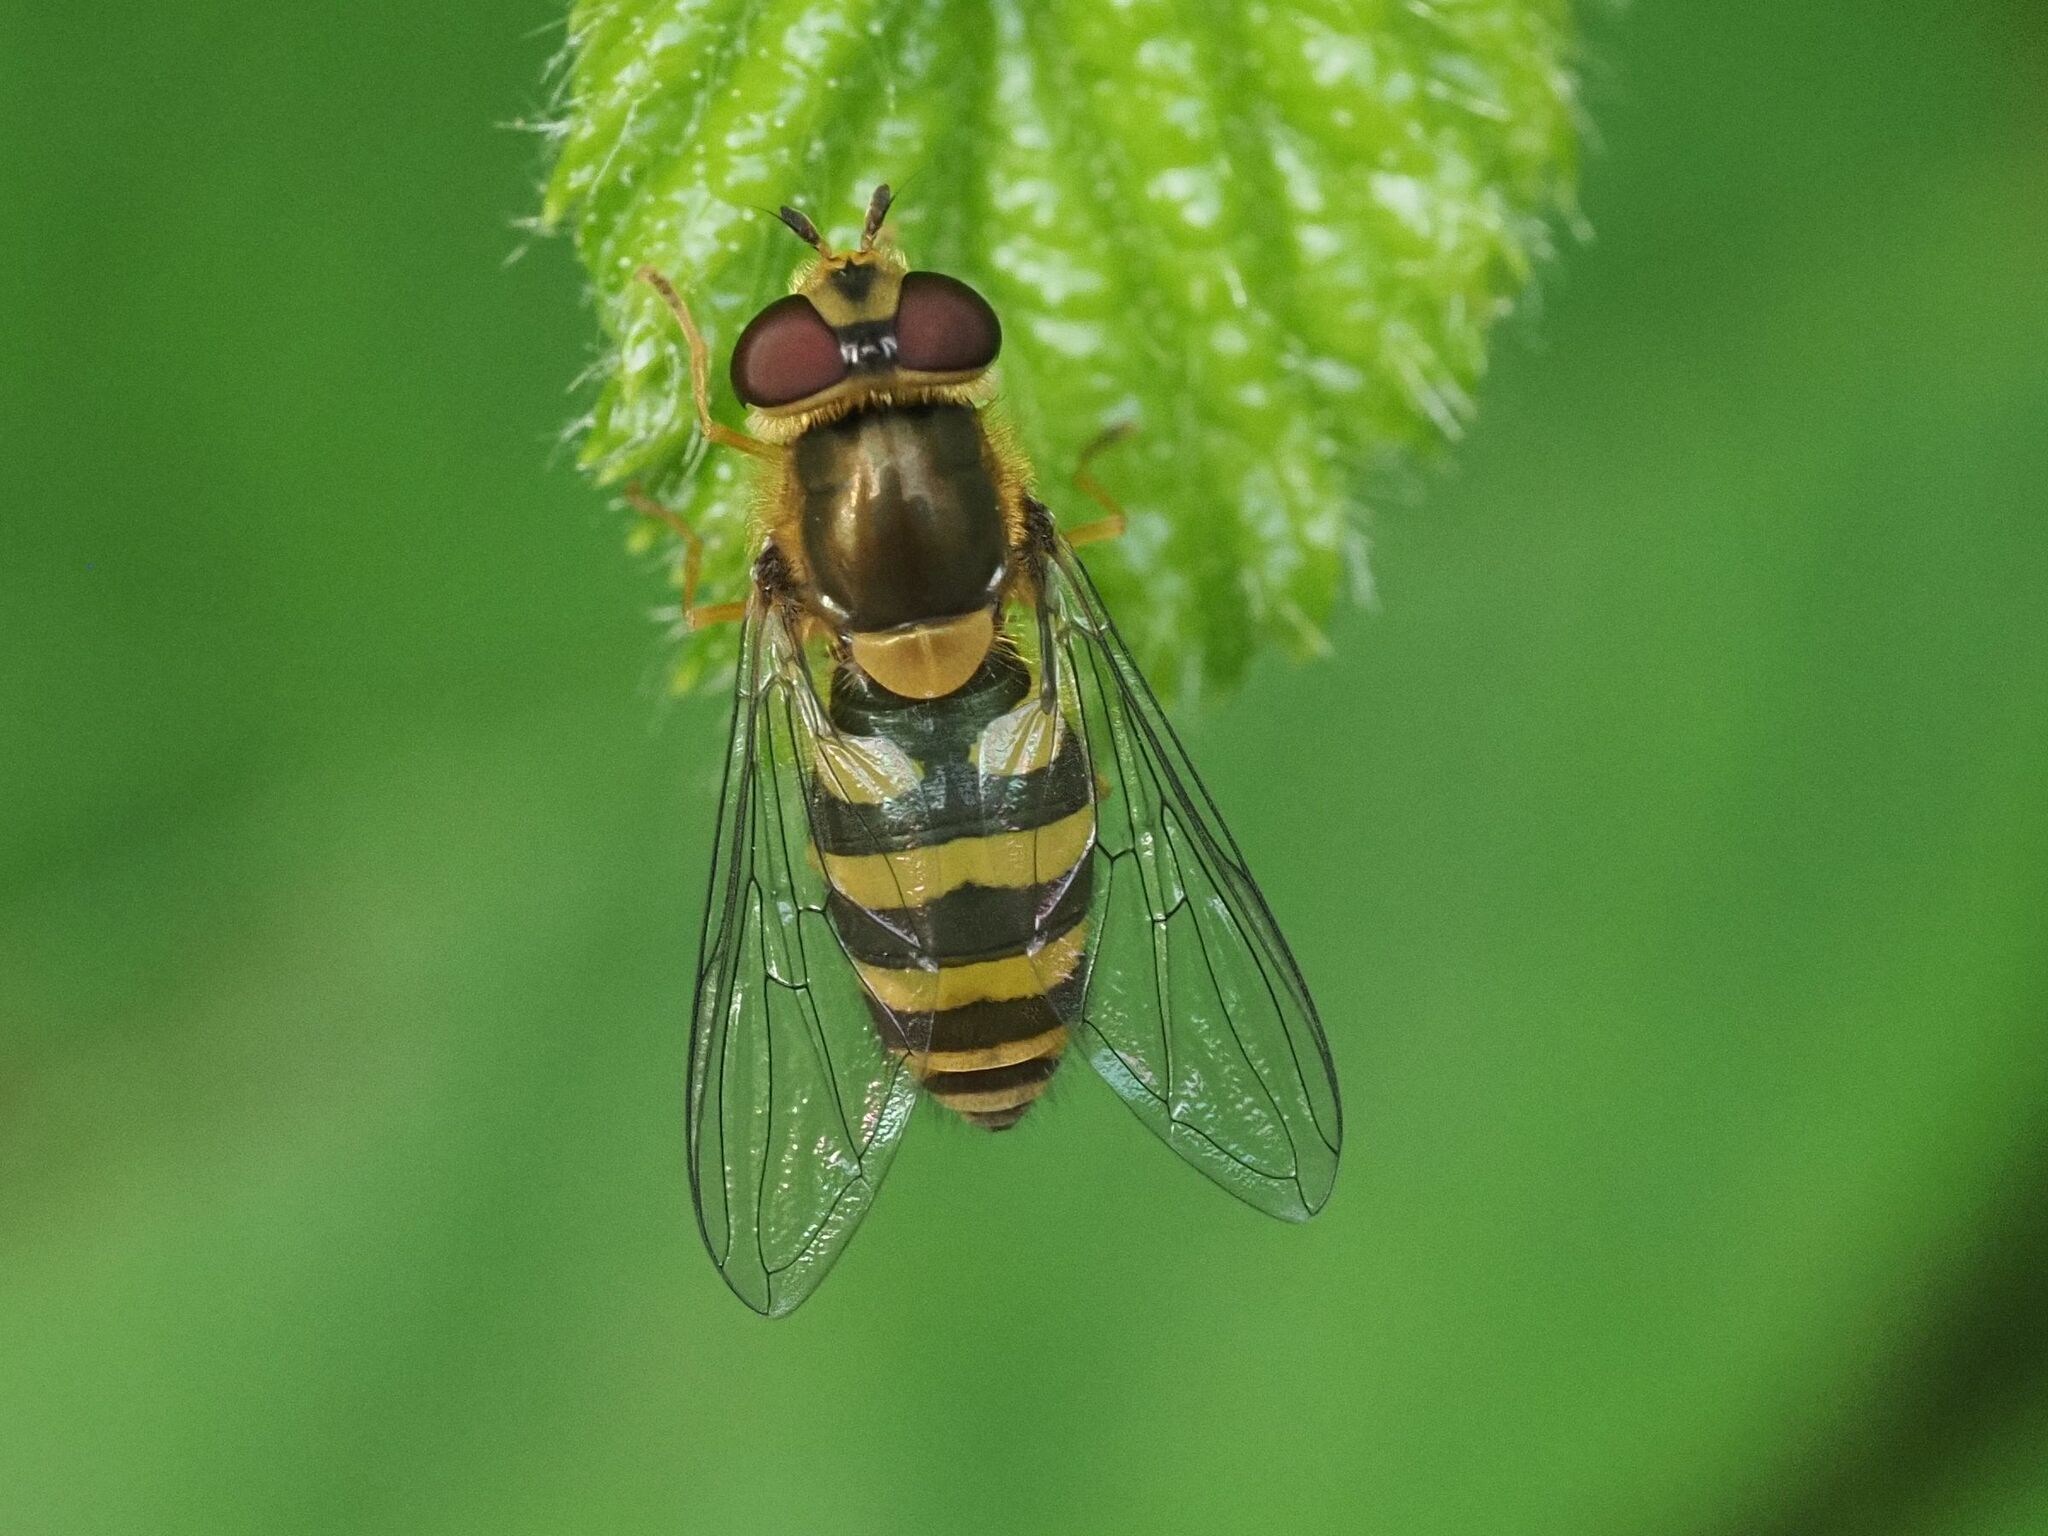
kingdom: Animalia
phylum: Arthropoda
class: Insecta
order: Diptera
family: Syrphidae
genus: Syrphus
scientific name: Syrphus
